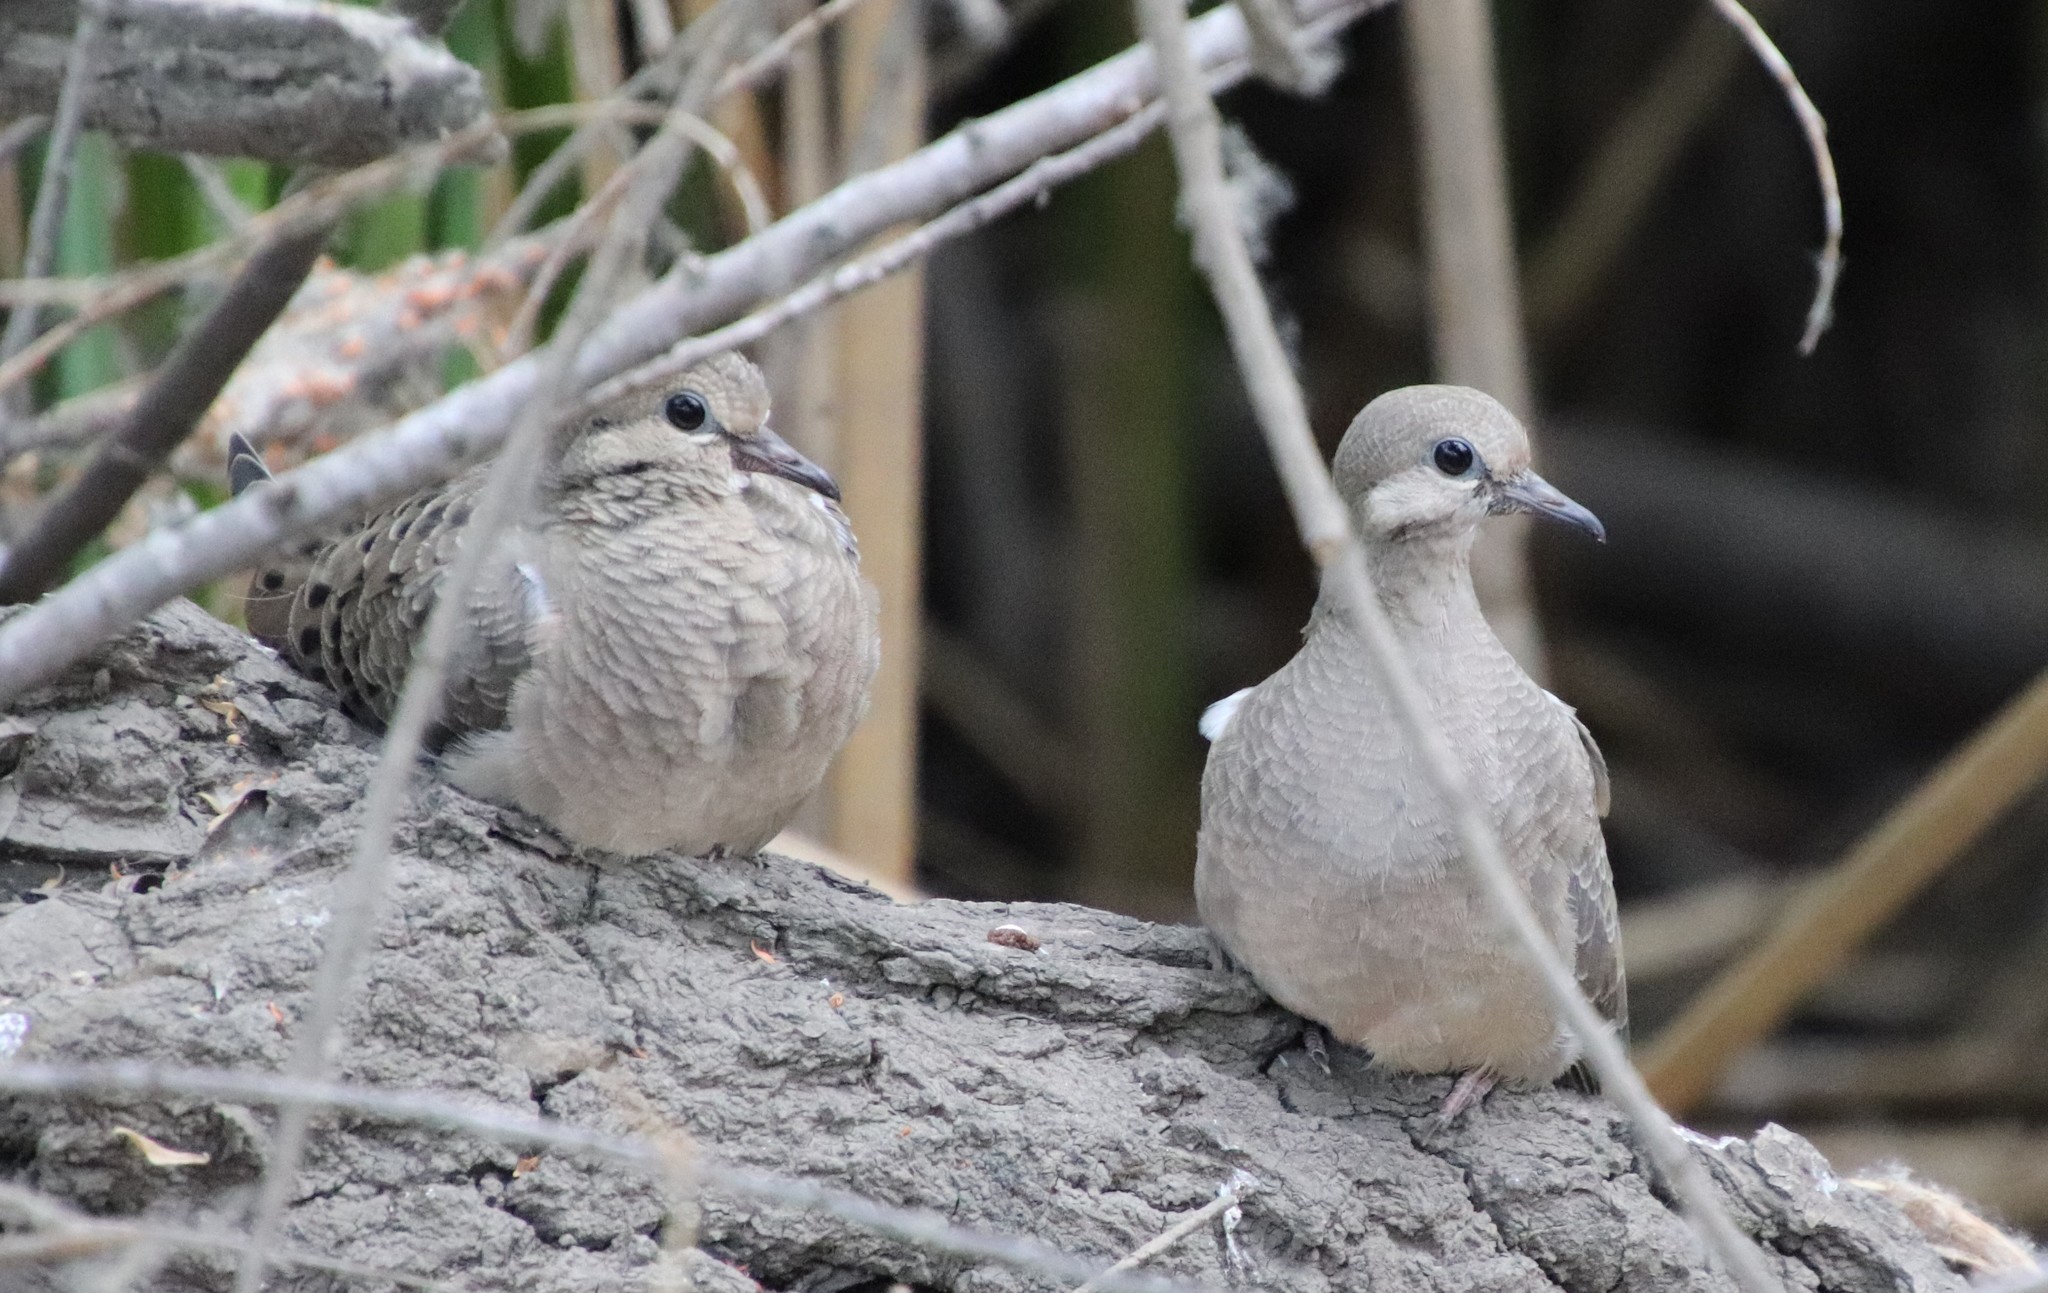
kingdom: Animalia
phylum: Chordata
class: Aves
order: Columbiformes
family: Columbidae
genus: Zenaida
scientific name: Zenaida macroura
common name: Mourning dove
